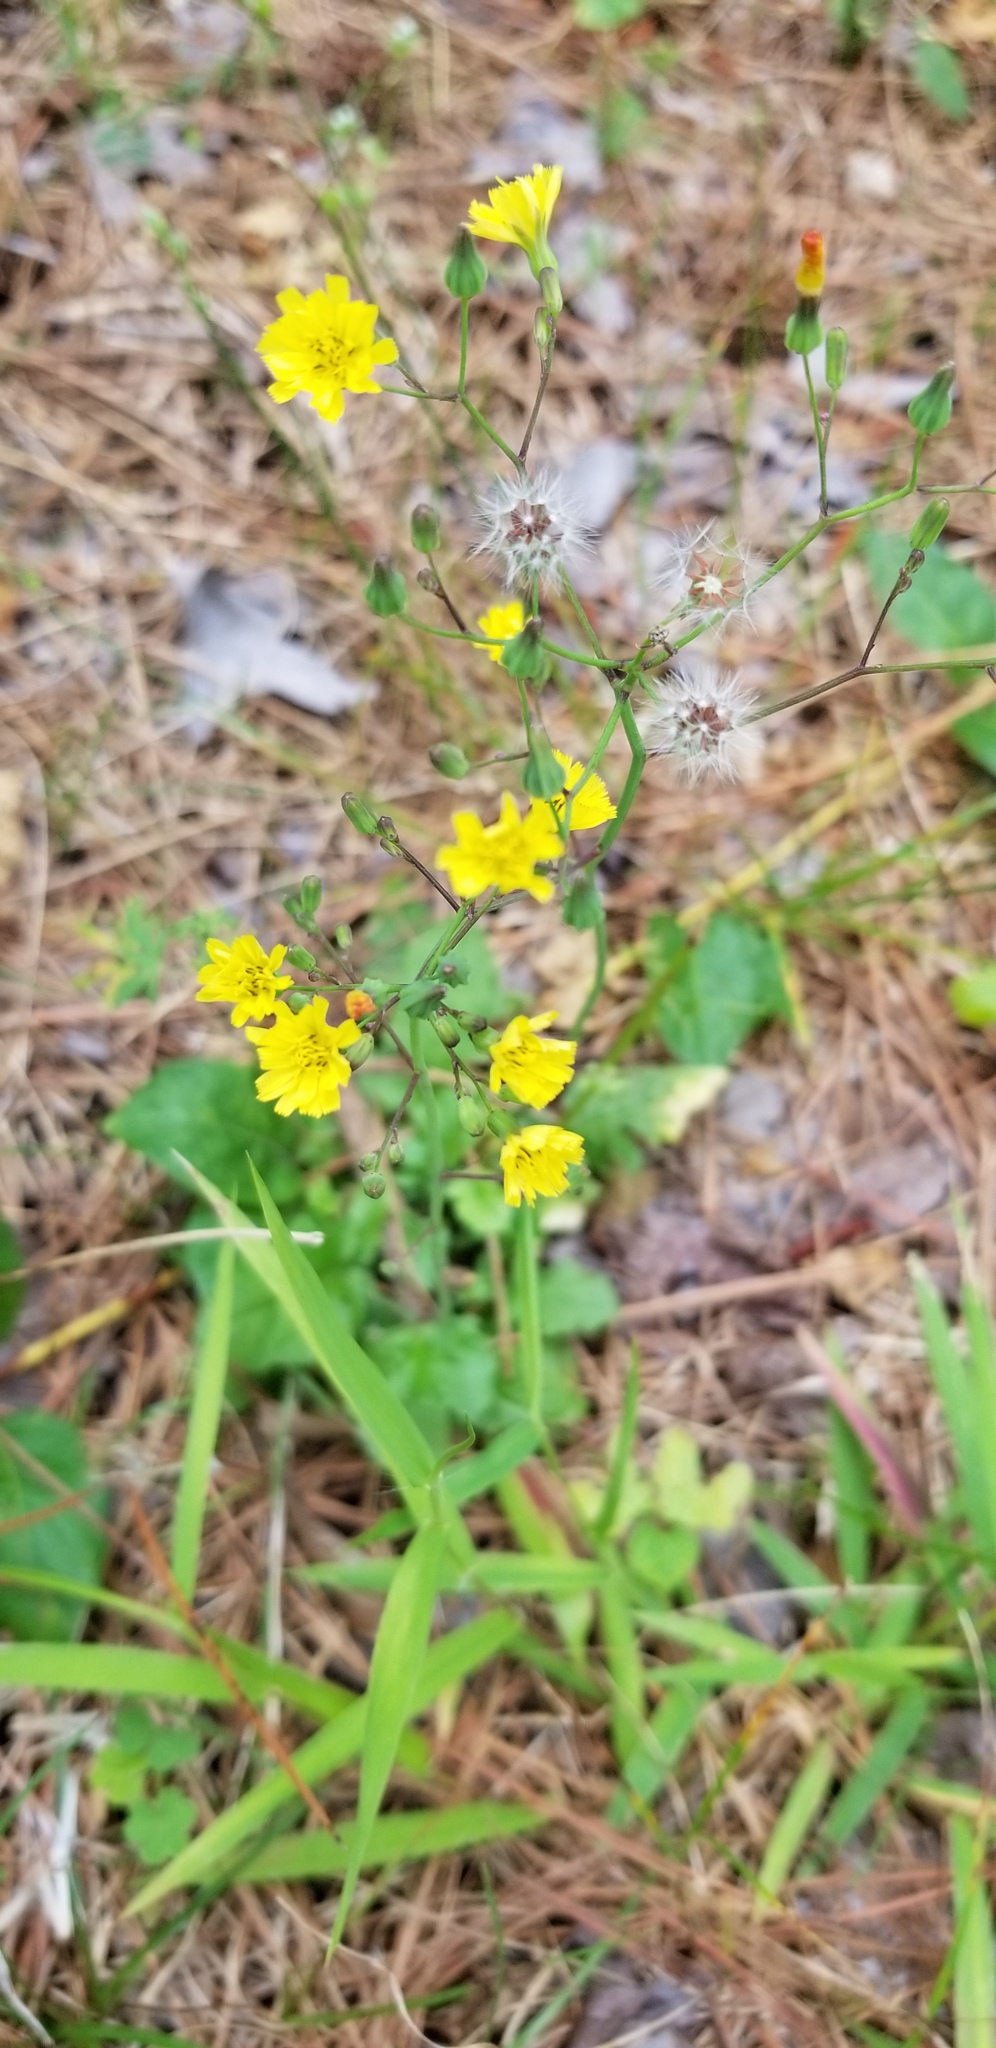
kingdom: Plantae
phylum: Tracheophyta
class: Magnoliopsida
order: Asterales
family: Asteraceae
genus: Youngia
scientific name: Youngia japonica
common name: Oriental false hawksbeard
